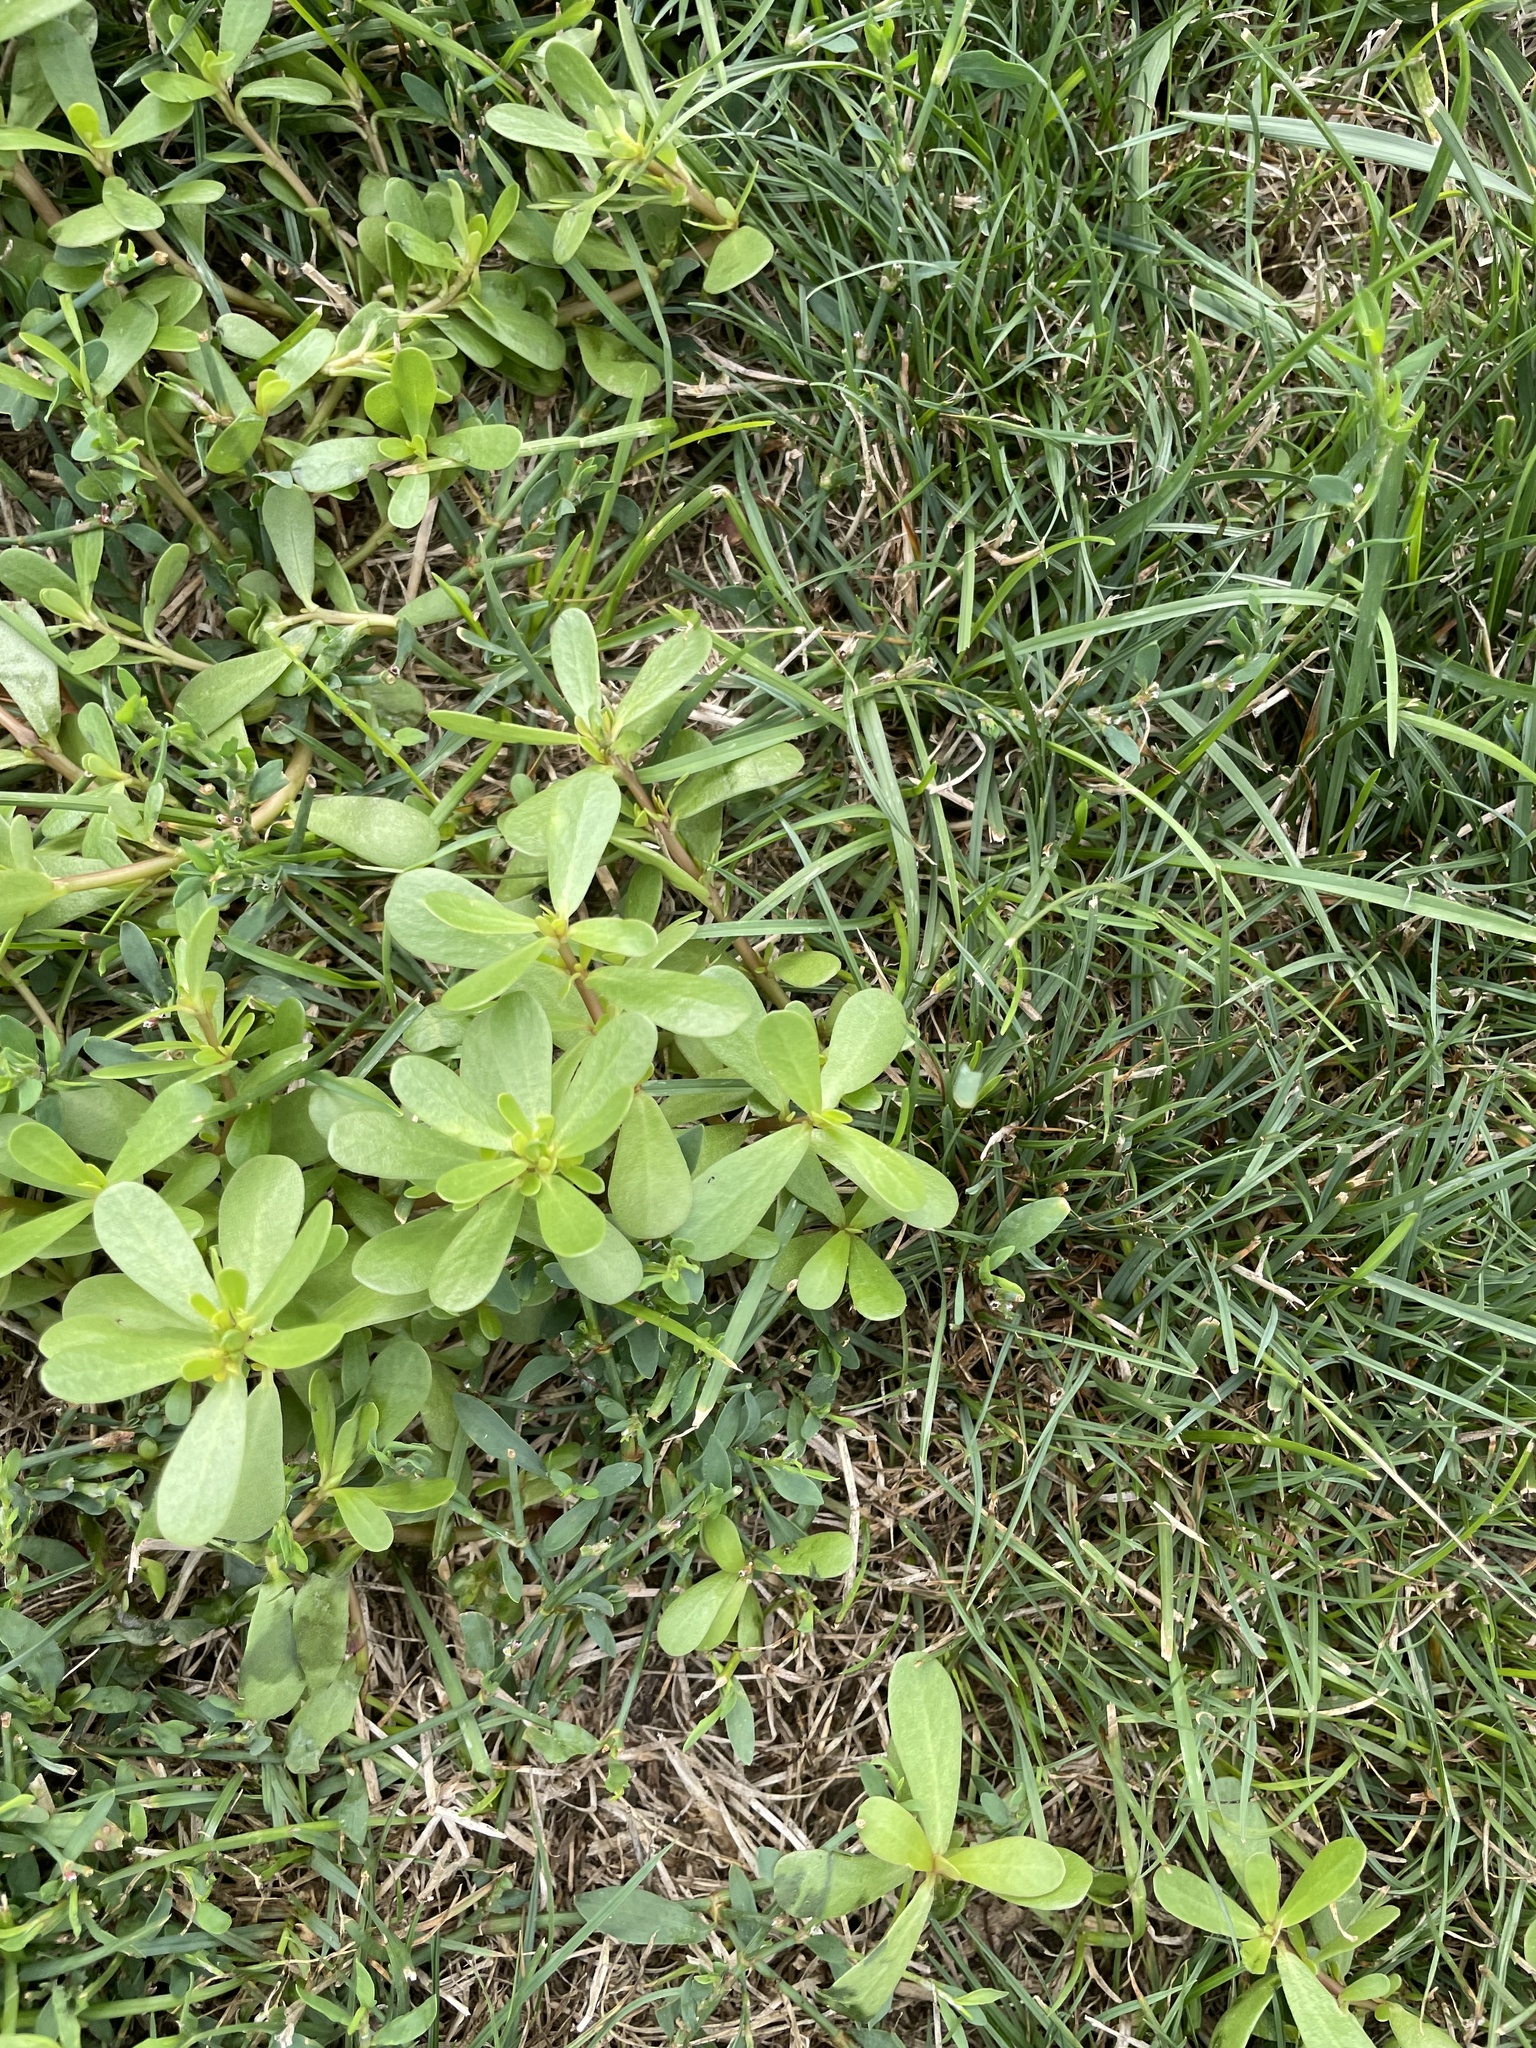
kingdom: Plantae
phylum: Tracheophyta
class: Magnoliopsida
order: Caryophyllales
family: Portulacaceae
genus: Portulaca
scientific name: Portulaca oleracea
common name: Common purslane
